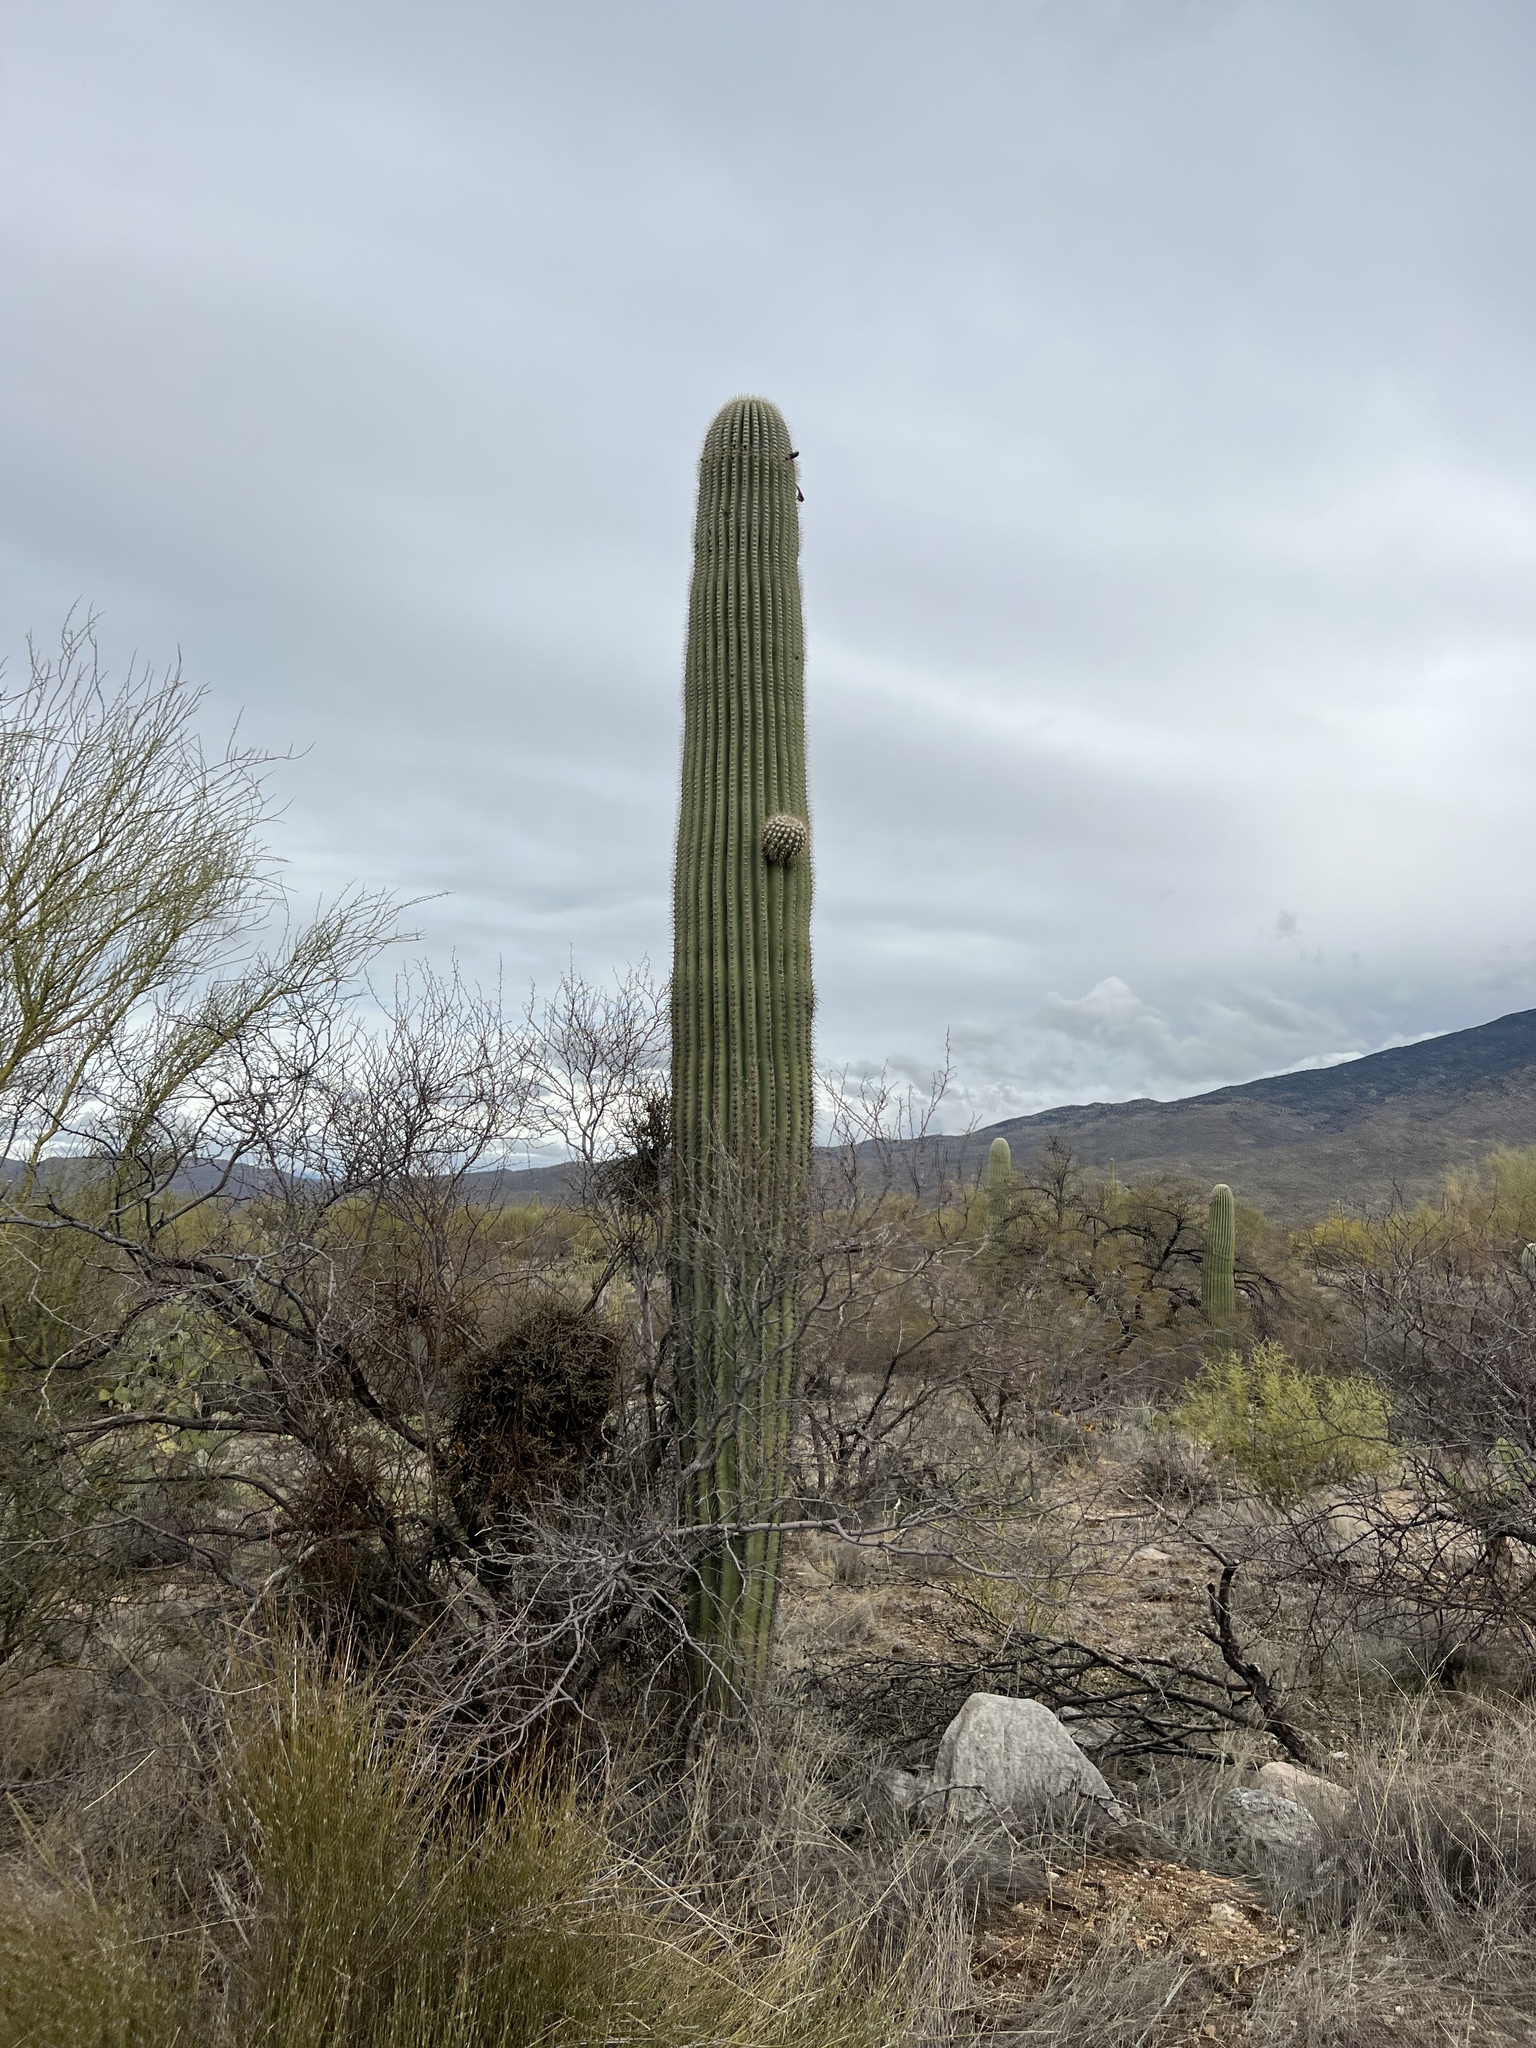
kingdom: Plantae
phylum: Tracheophyta
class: Magnoliopsida
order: Caryophyllales
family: Cactaceae
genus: Carnegiea
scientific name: Carnegiea gigantea
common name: Saguaro
